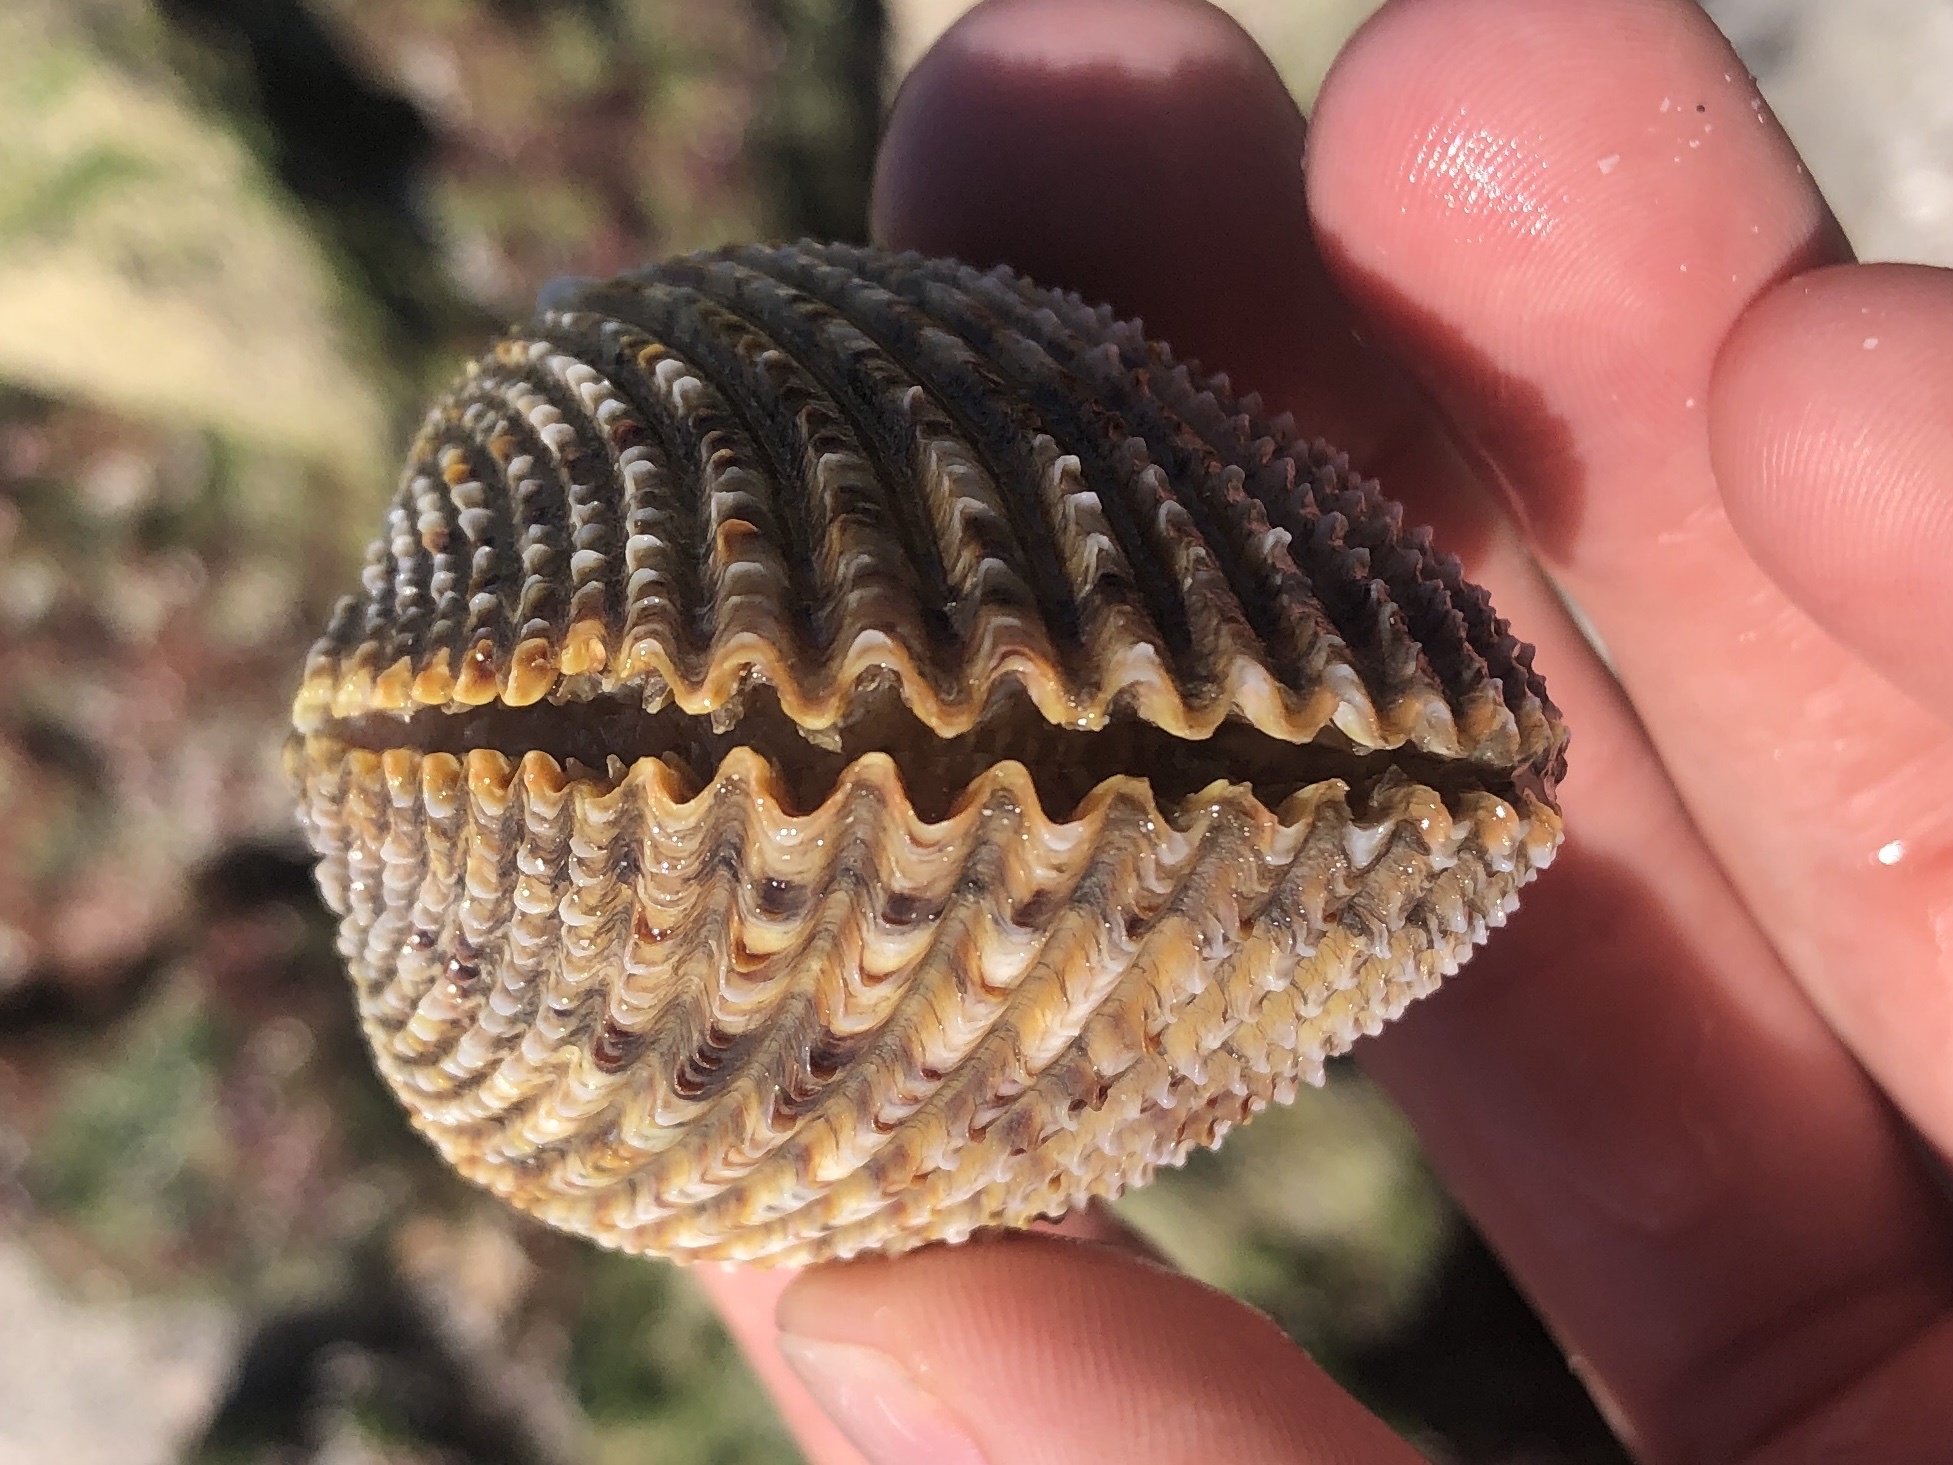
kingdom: Animalia
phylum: Mollusca
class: Bivalvia
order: Cardiida
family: Cardiidae
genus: Trachycardium
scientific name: Trachycardium egmontianum
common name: Florida pricklycockle
